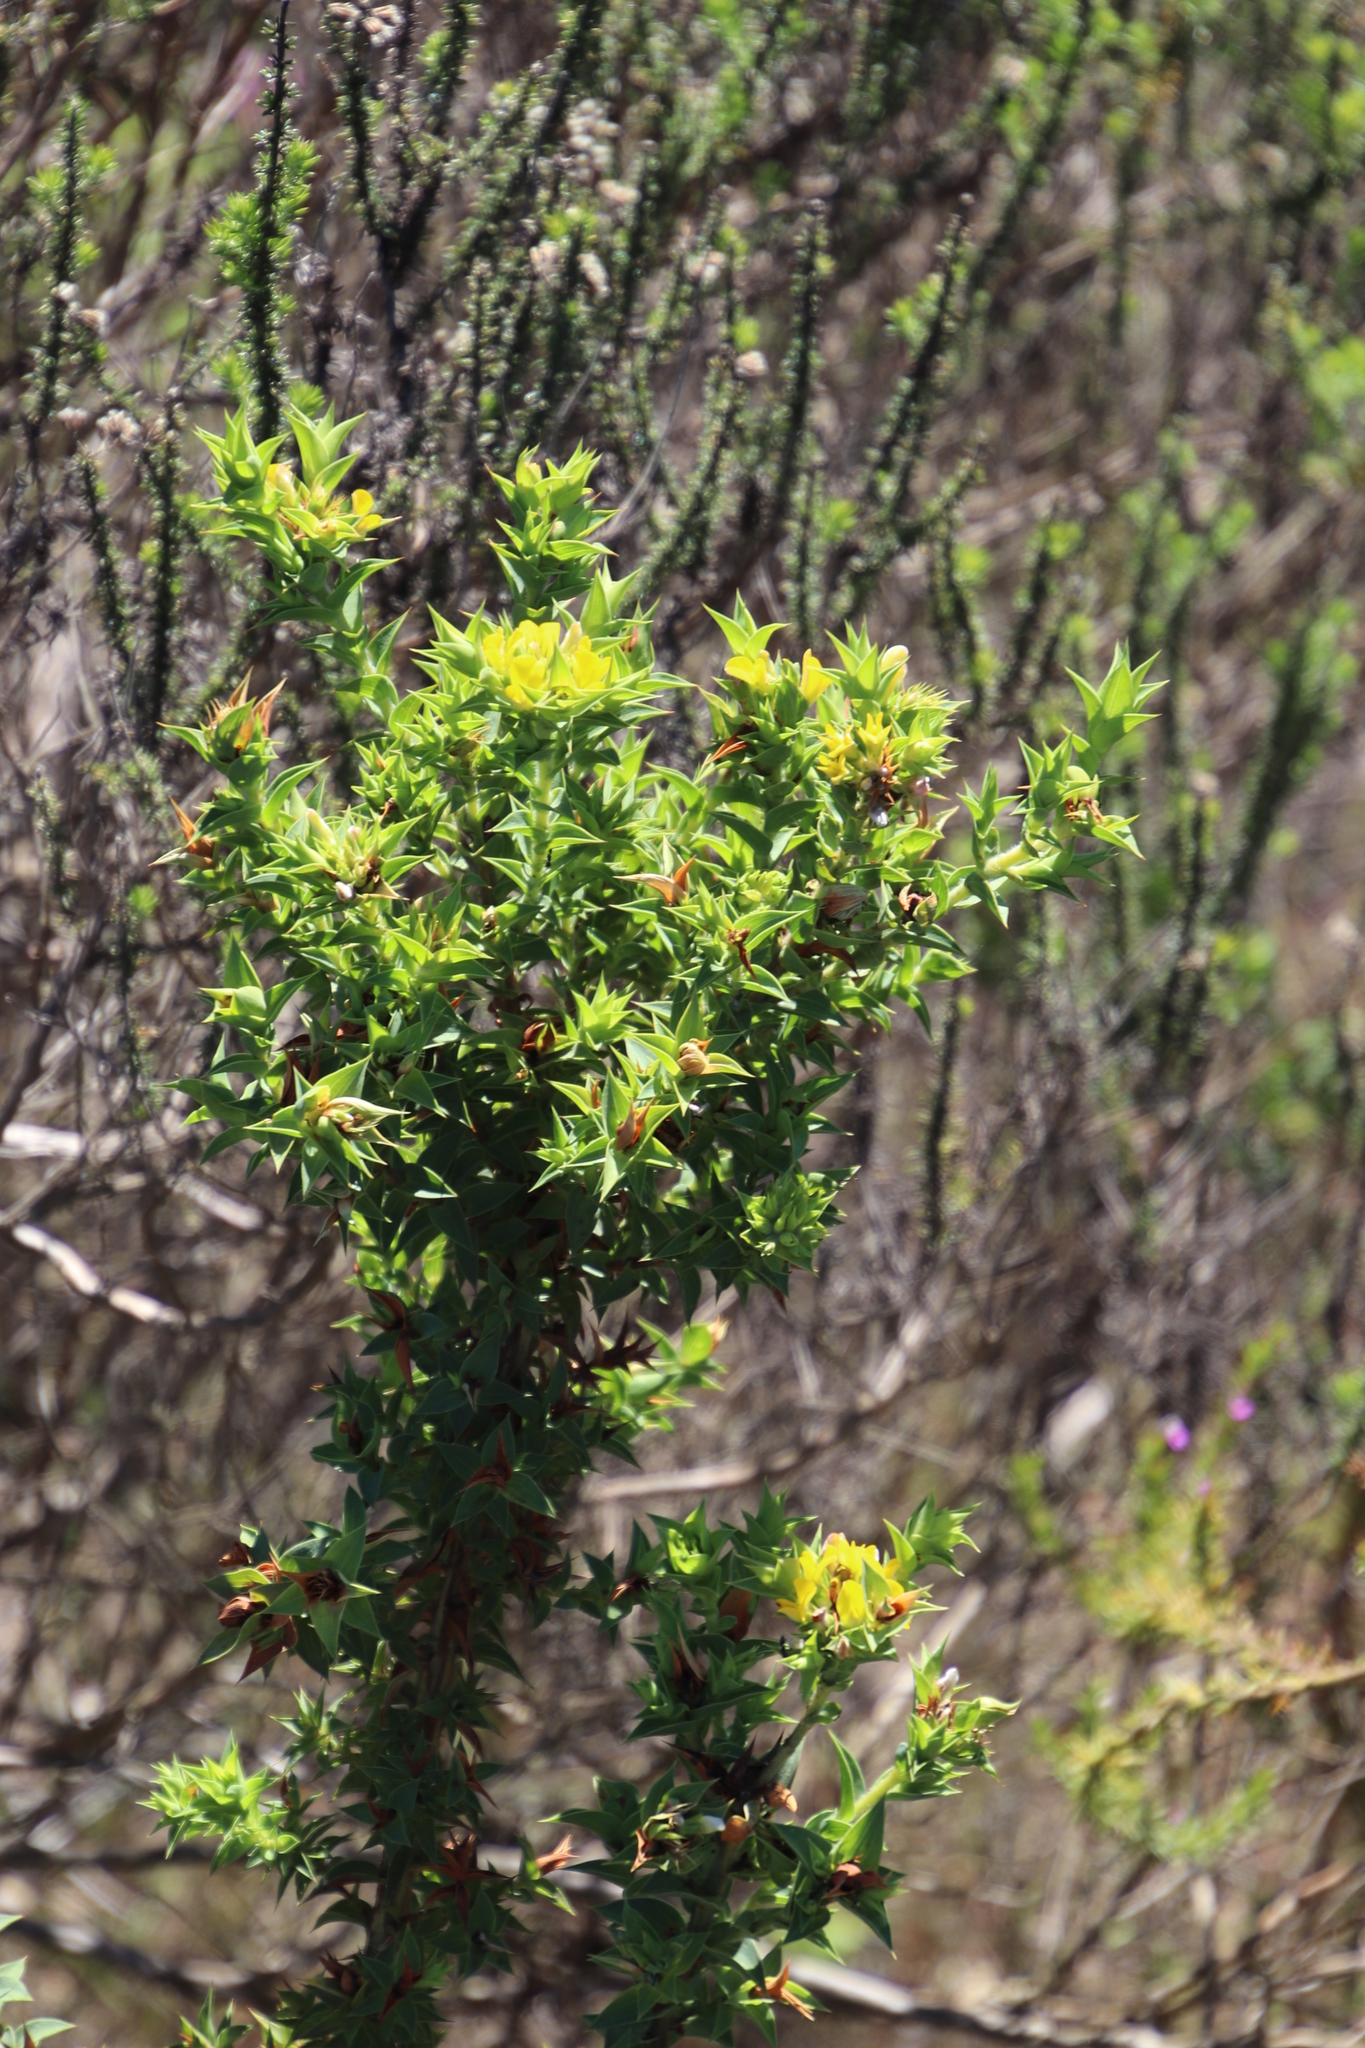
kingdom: Plantae
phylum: Tracheophyta
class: Magnoliopsida
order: Fabales
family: Fabaceae
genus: Aspalathus
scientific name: Aspalathus cordata
